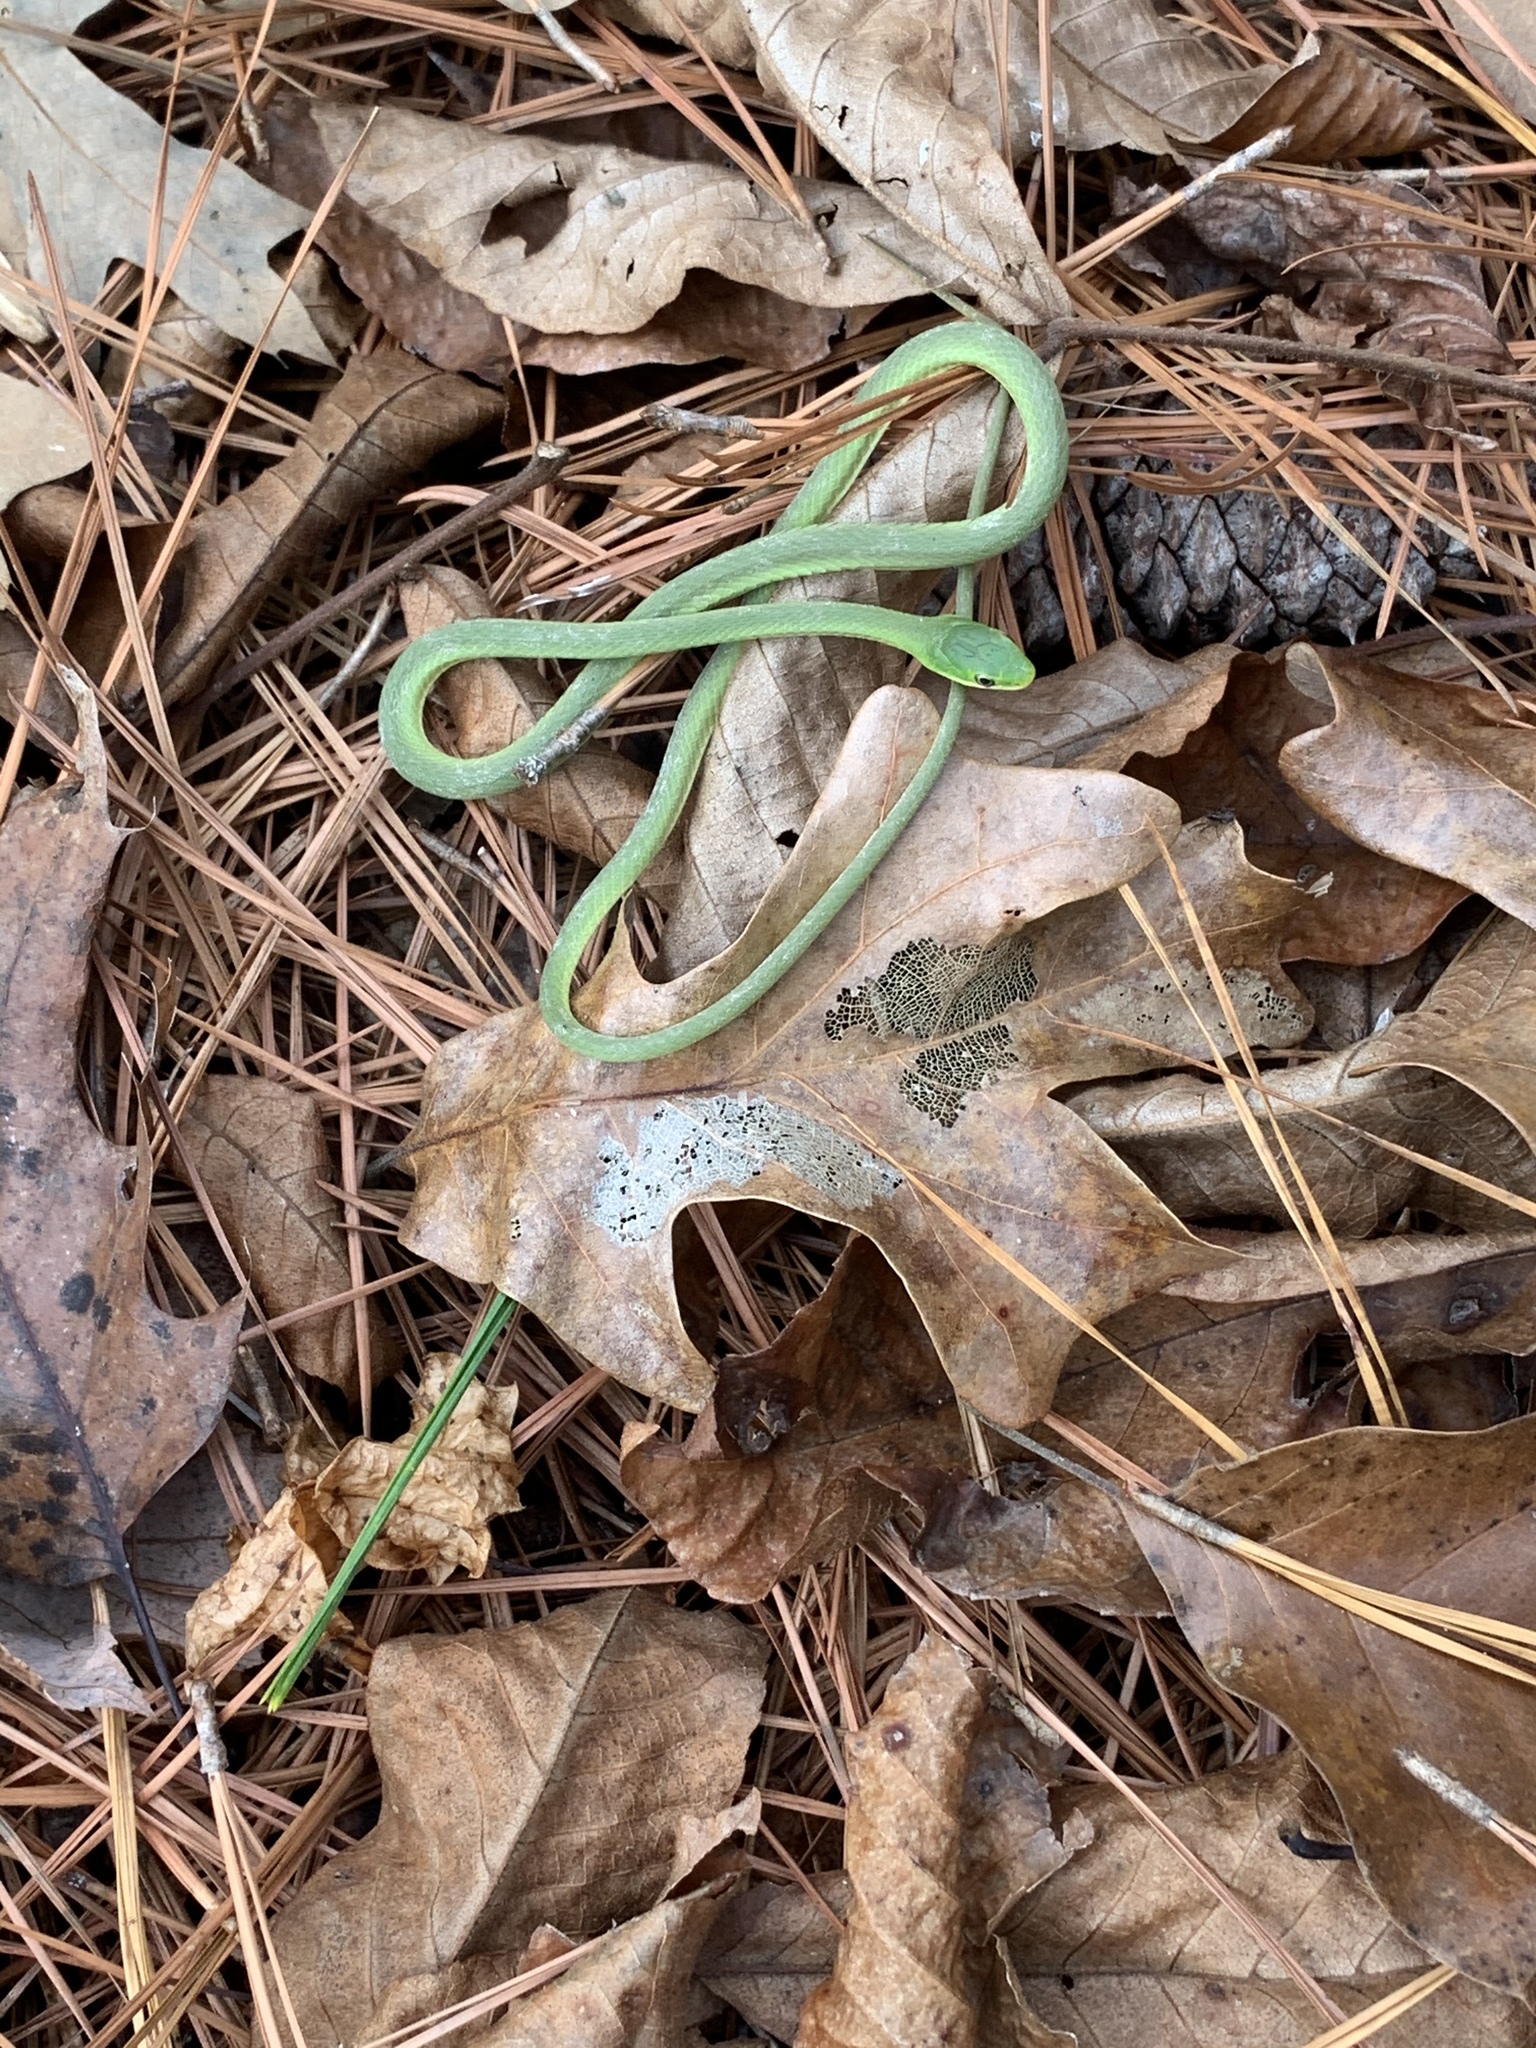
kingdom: Animalia
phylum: Chordata
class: Squamata
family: Colubridae
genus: Opheodrys
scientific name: Opheodrys aestivus
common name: Rough greensnake
